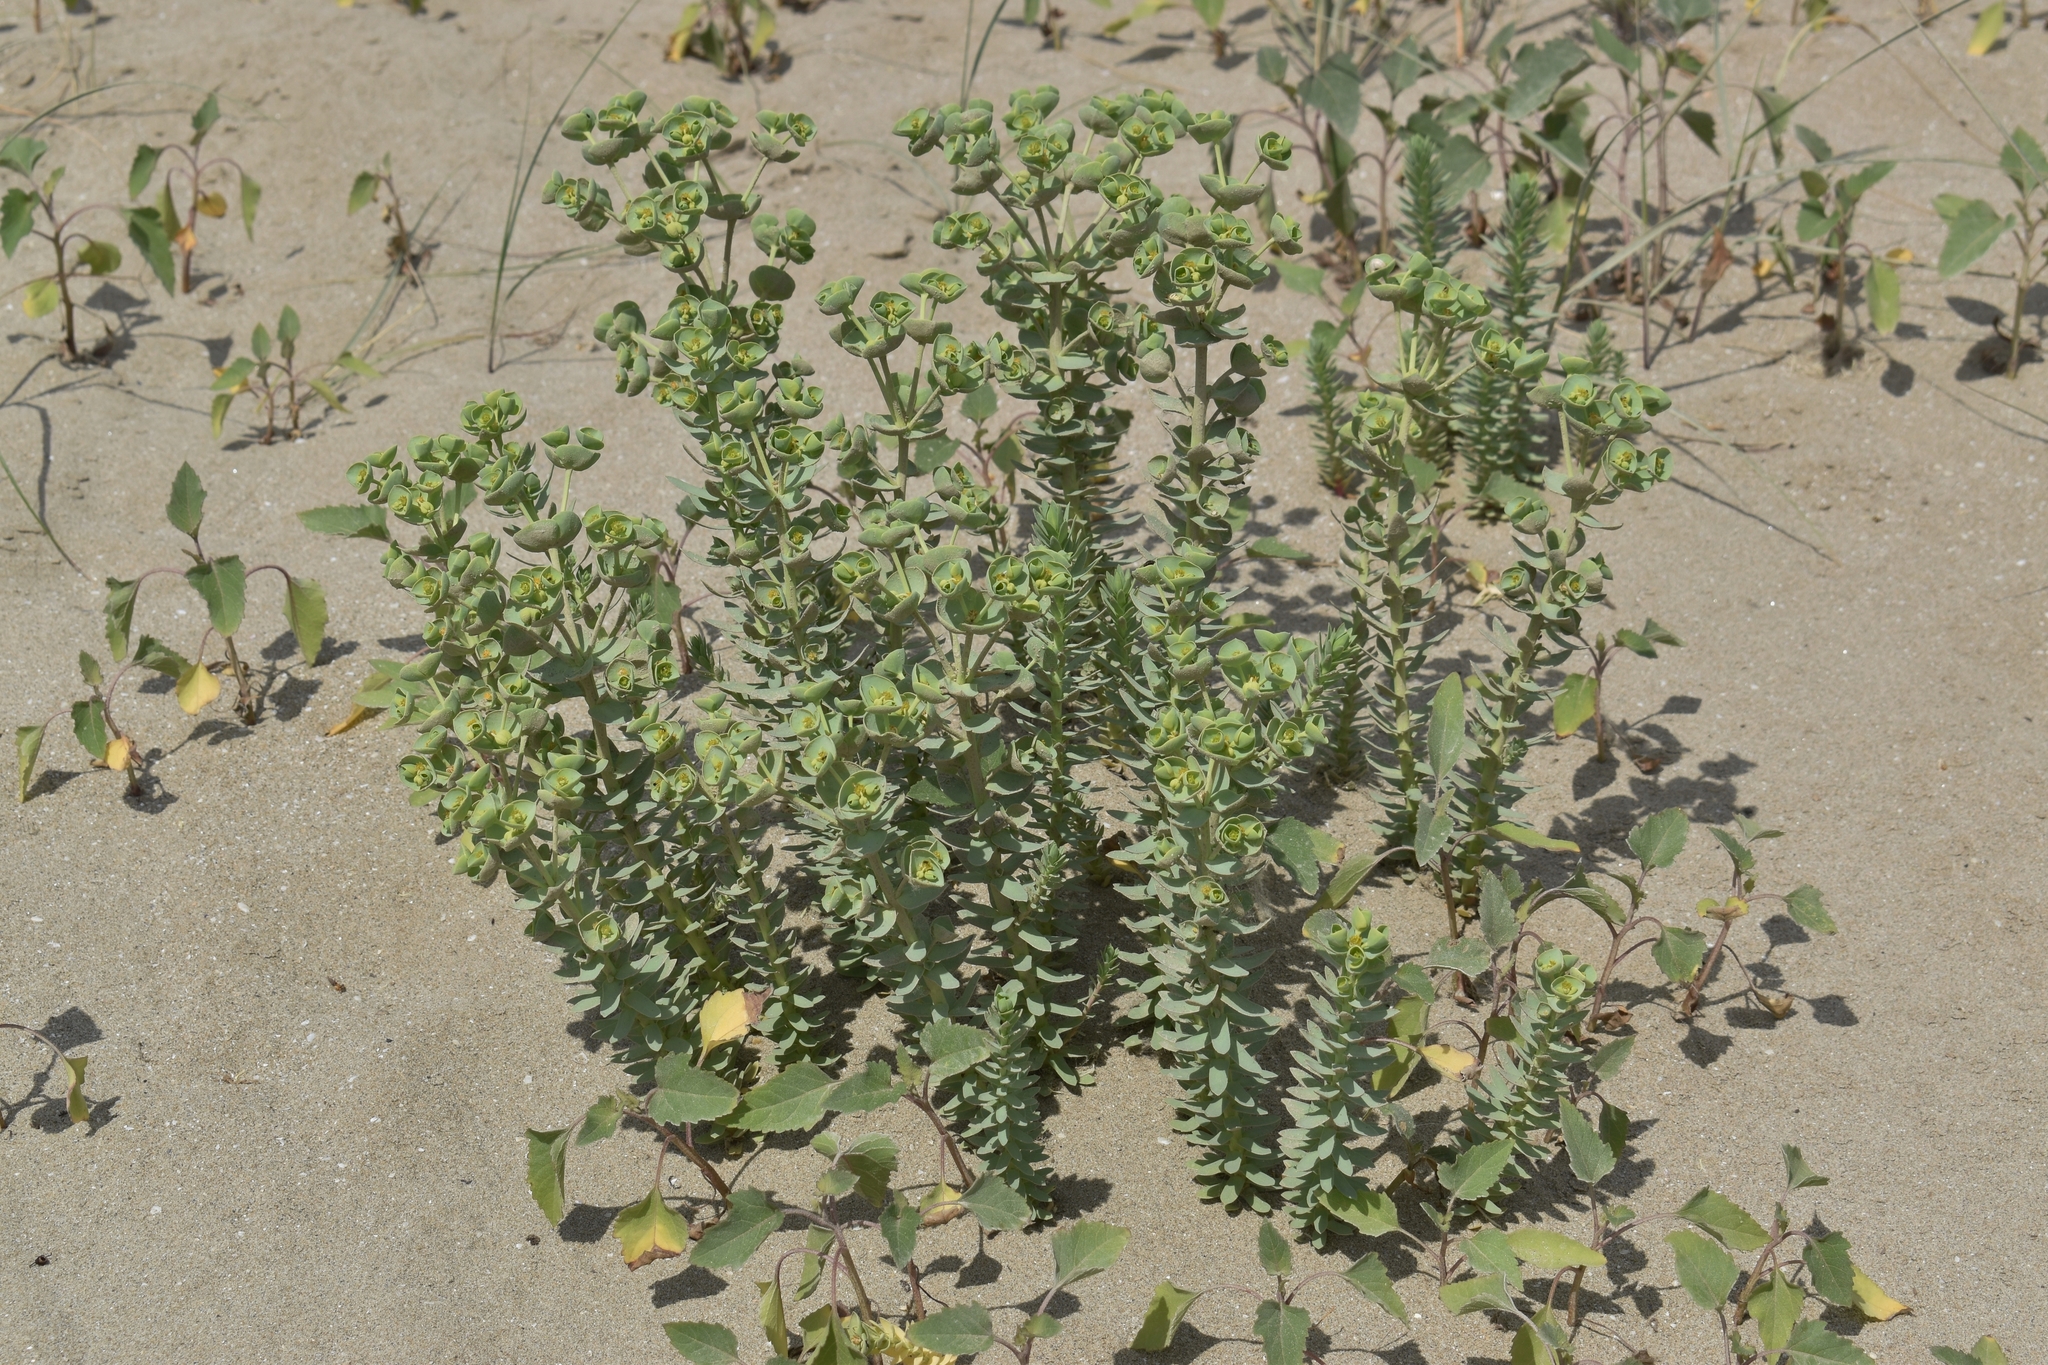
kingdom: Plantae
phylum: Tracheophyta
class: Magnoliopsida
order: Malpighiales
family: Euphorbiaceae
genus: Euphorbia
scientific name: Euphorbia paralias
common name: Sea spurge
